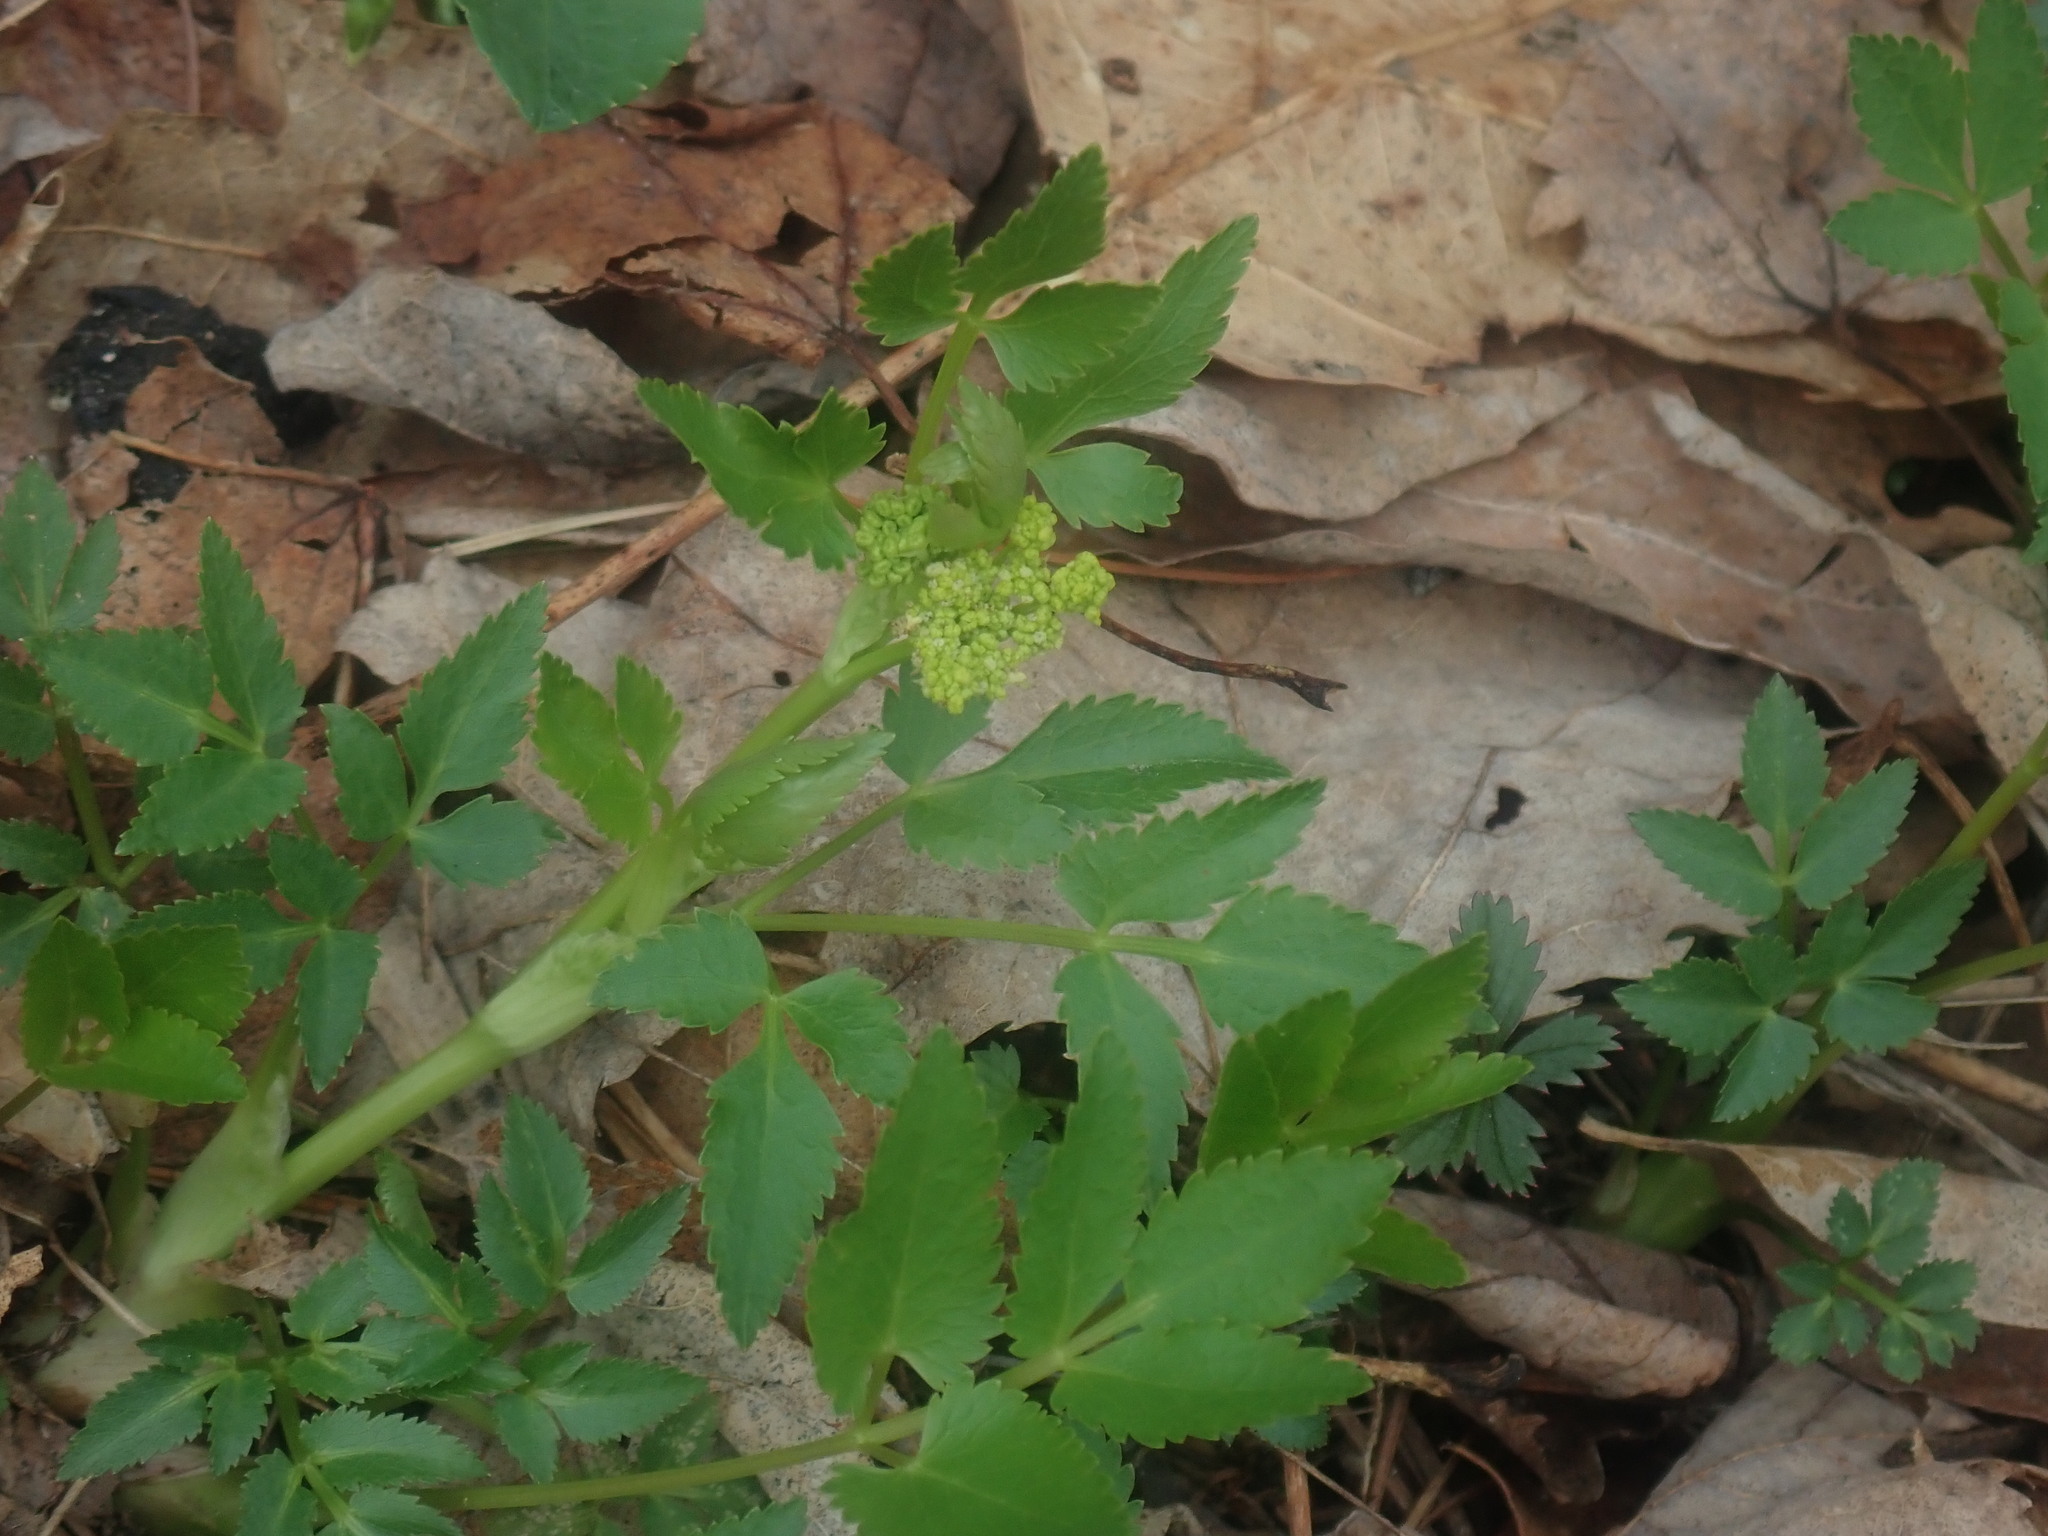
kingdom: Plantae
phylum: Tracheophyta
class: Magnoliopsida
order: Apiales
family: Apiaceae
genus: Zizia
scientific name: Zizia aurea
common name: Golden alexanders
